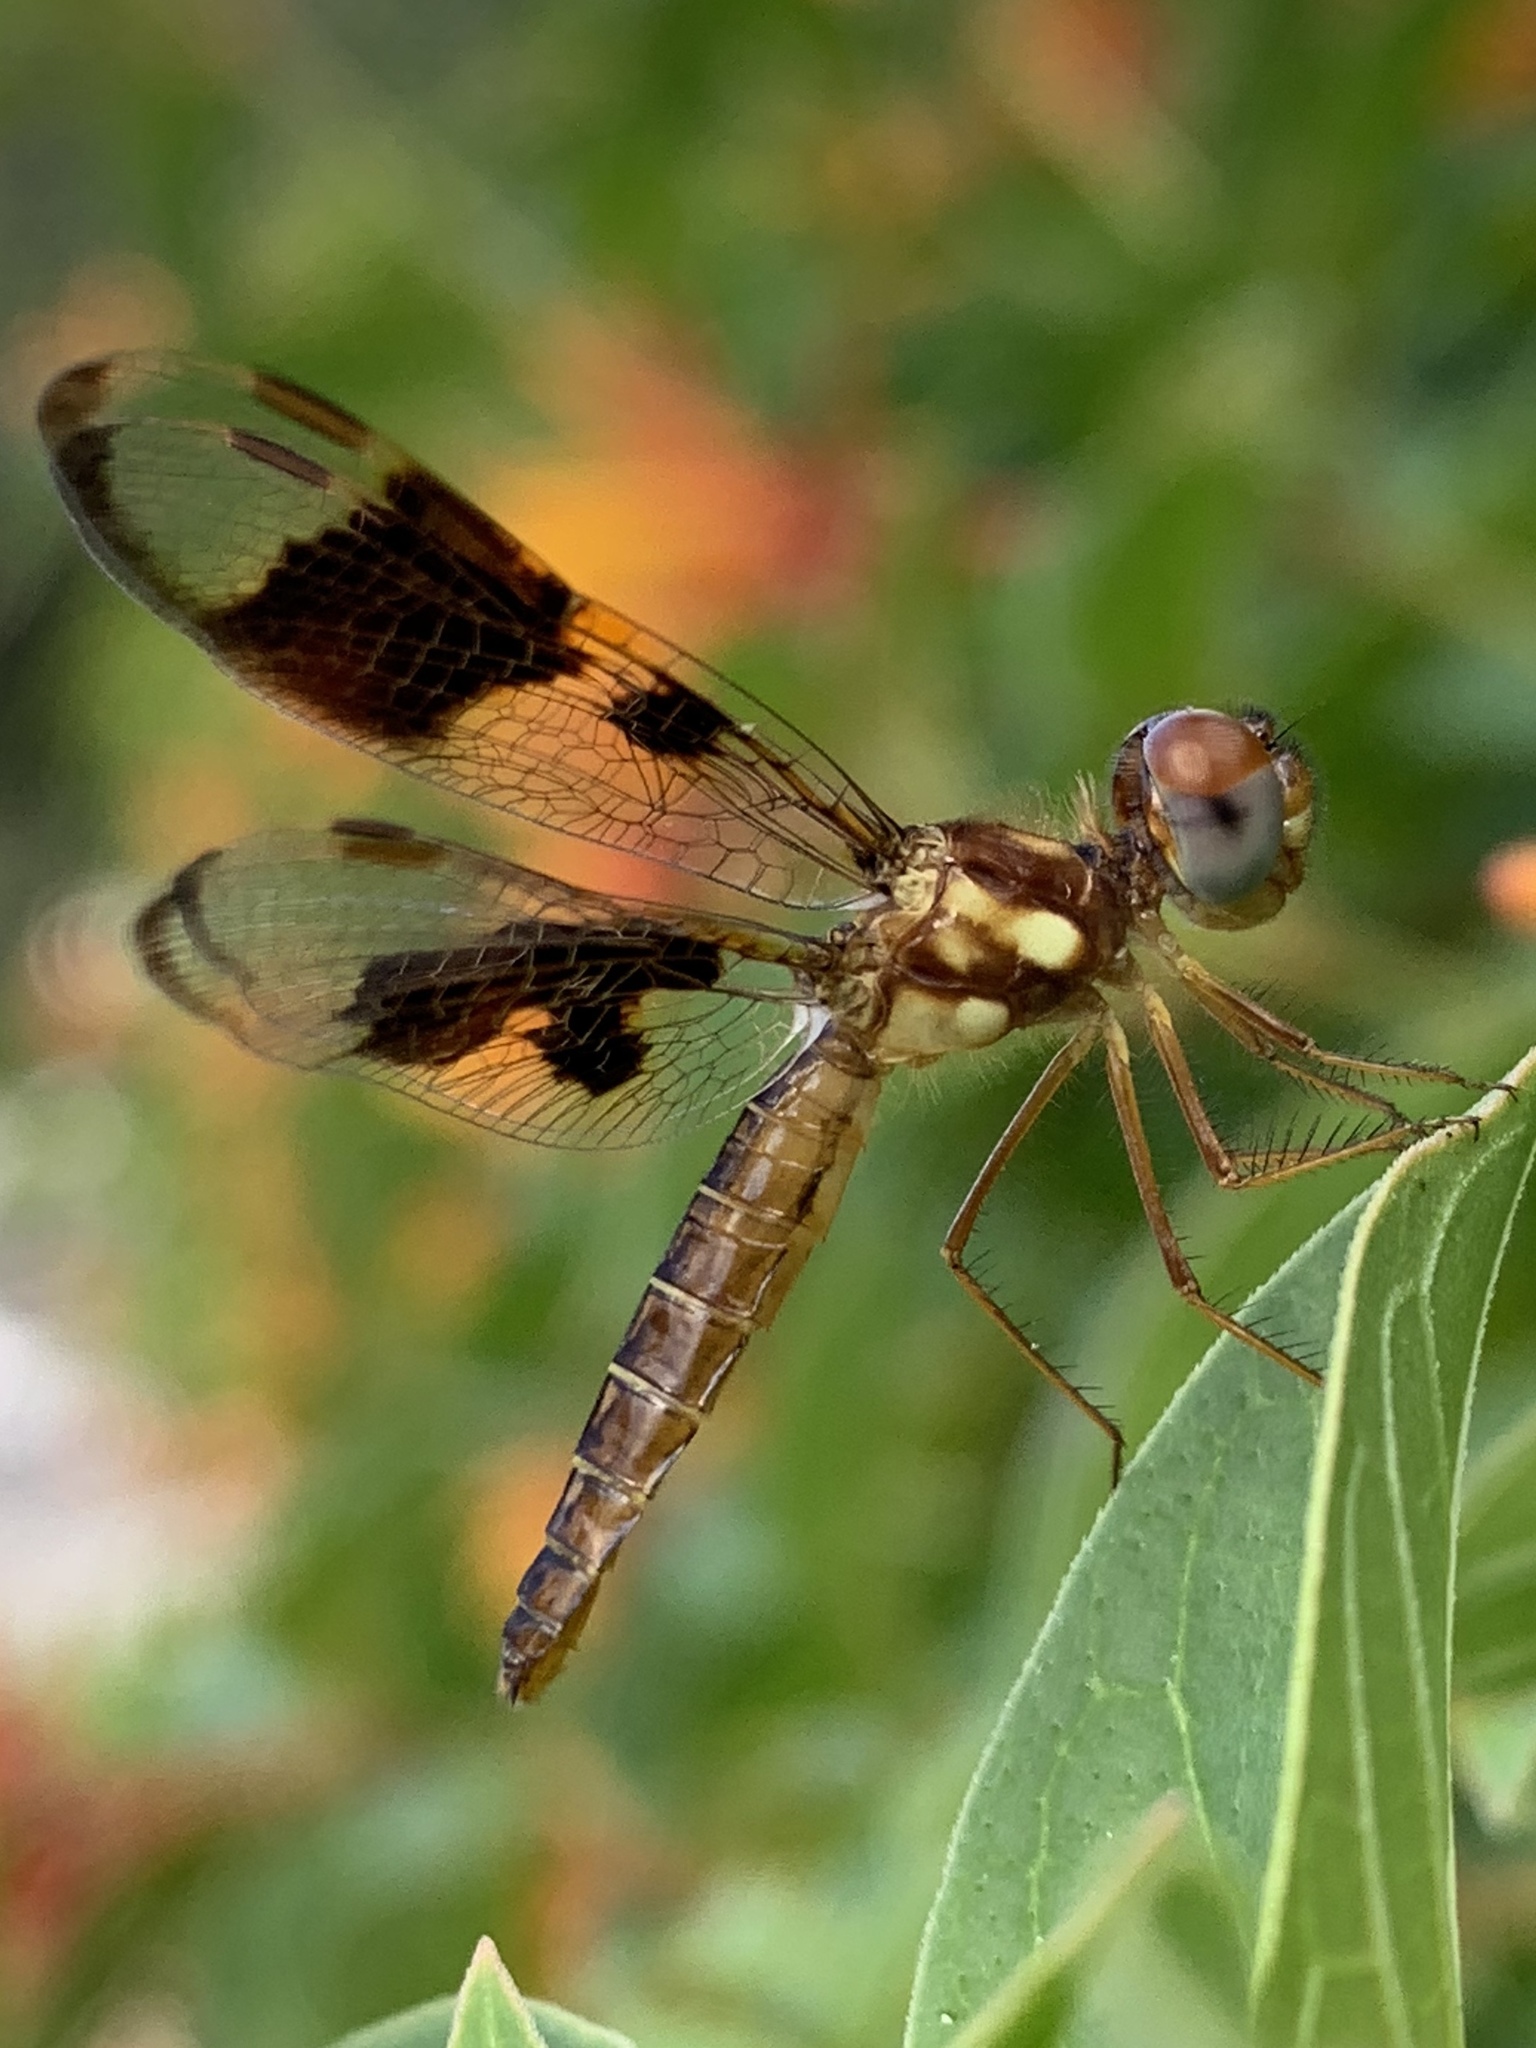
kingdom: Animalia
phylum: Arthropoda
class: Insecta
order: Odonata
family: Libellulidae
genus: Perithemis
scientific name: Perithemis tenera
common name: Eastern amberwing
